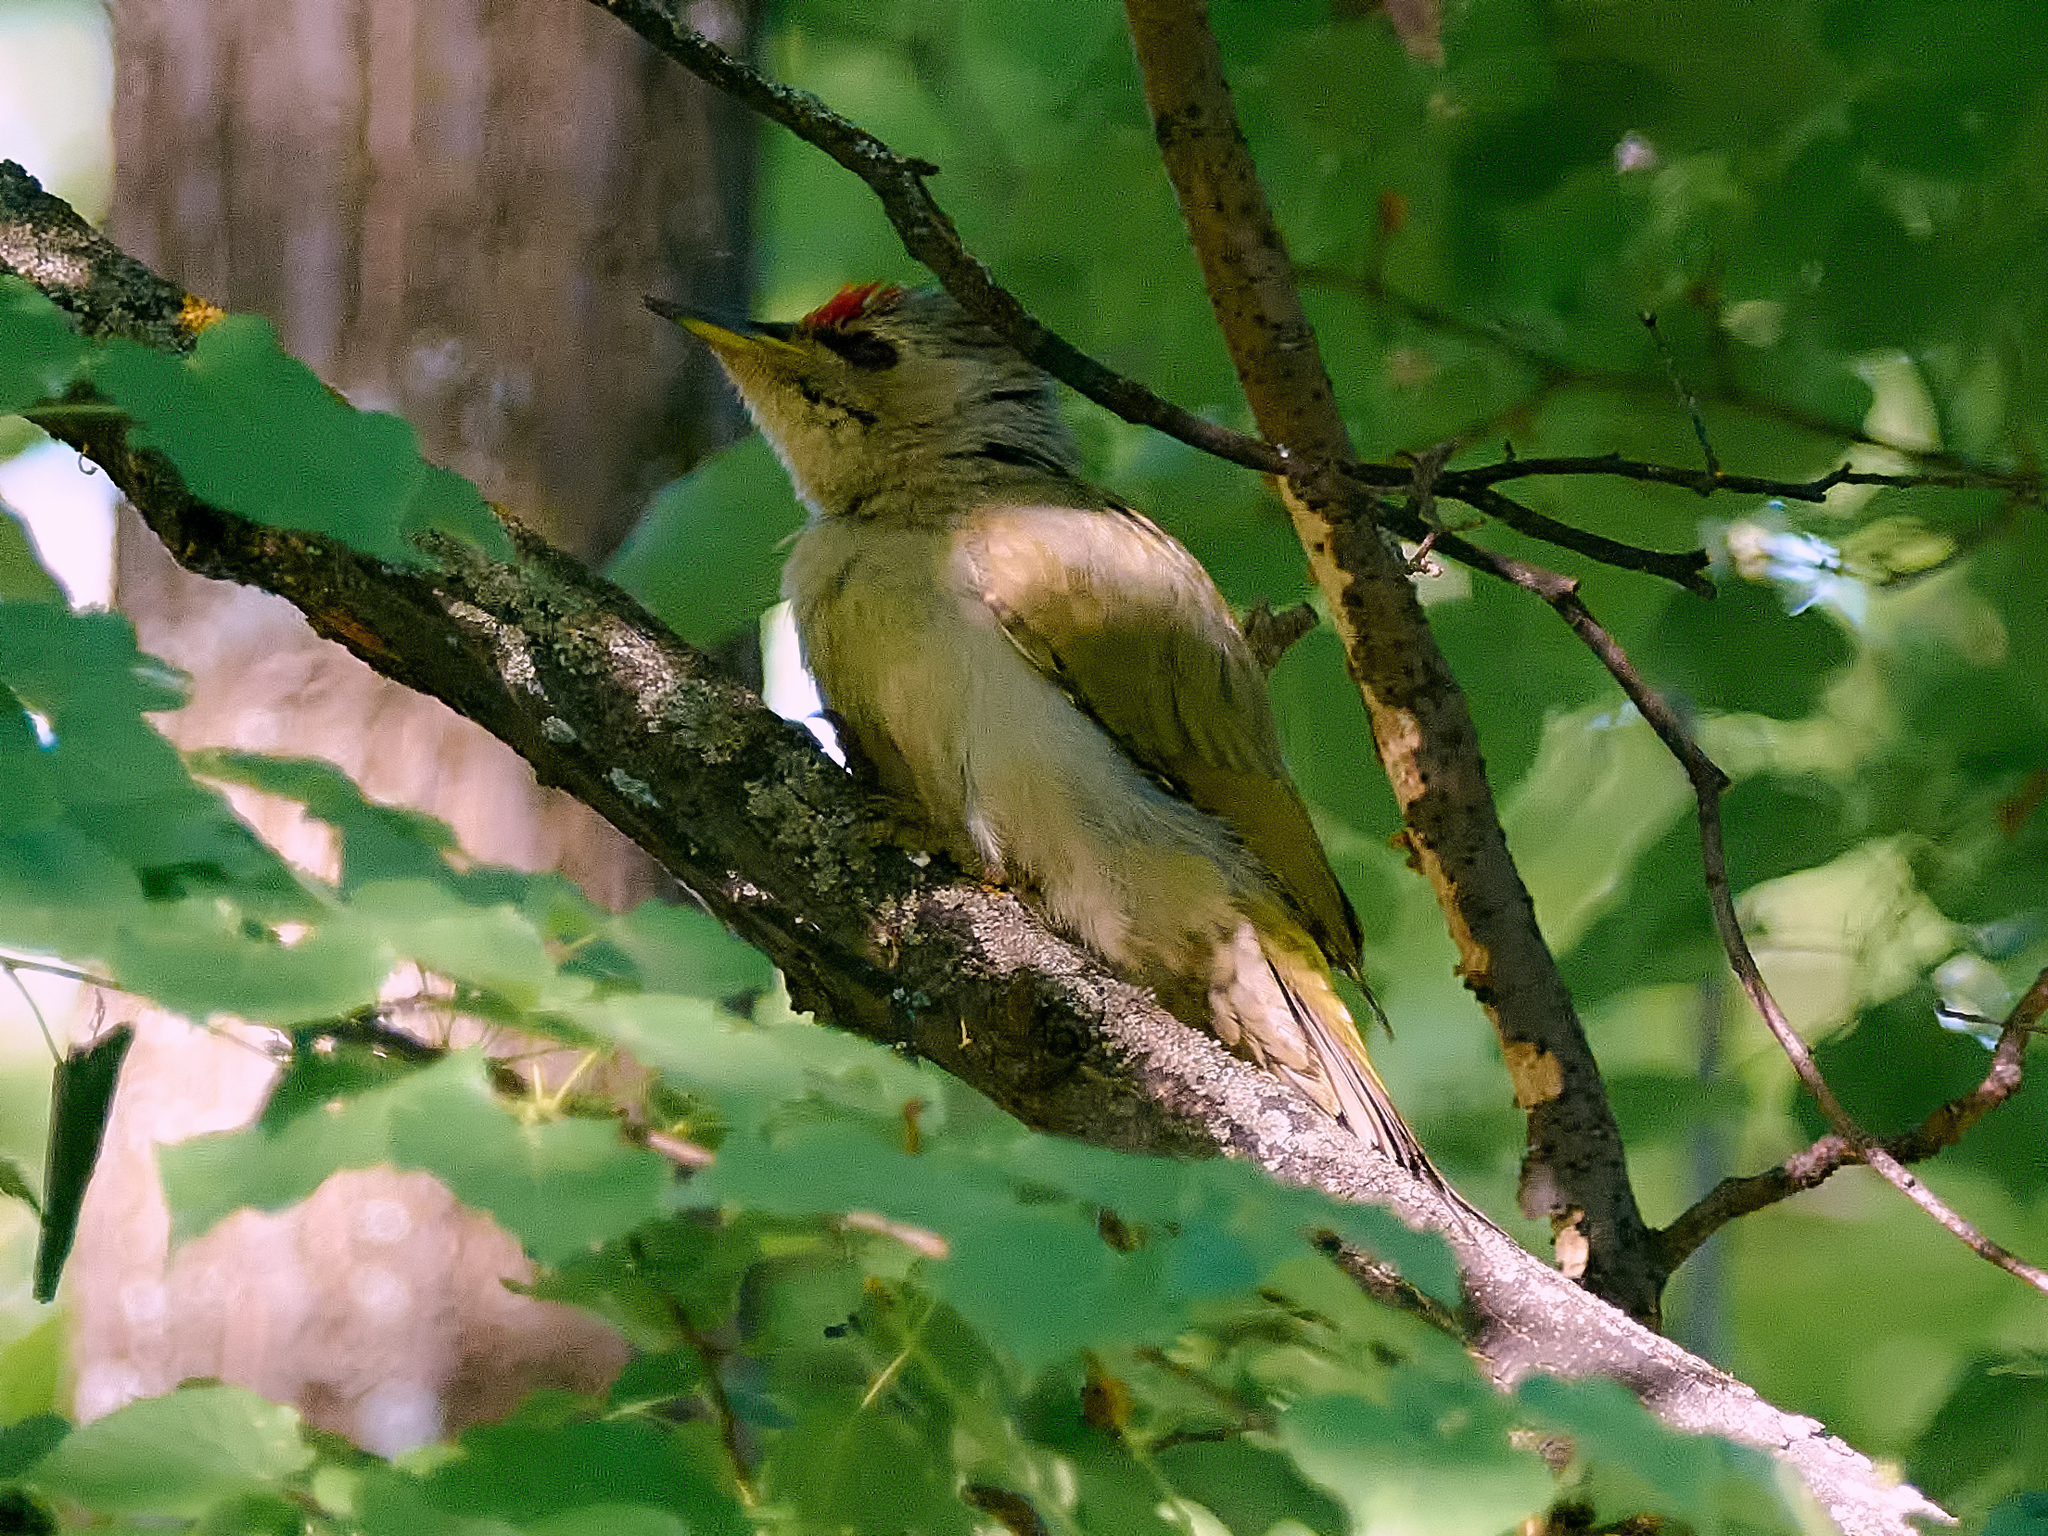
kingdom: Animalia
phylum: Chordata
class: Aves
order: Piciformes
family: Picidae
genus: Picus
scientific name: Picus canus
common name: Grey-headed woodpecker
